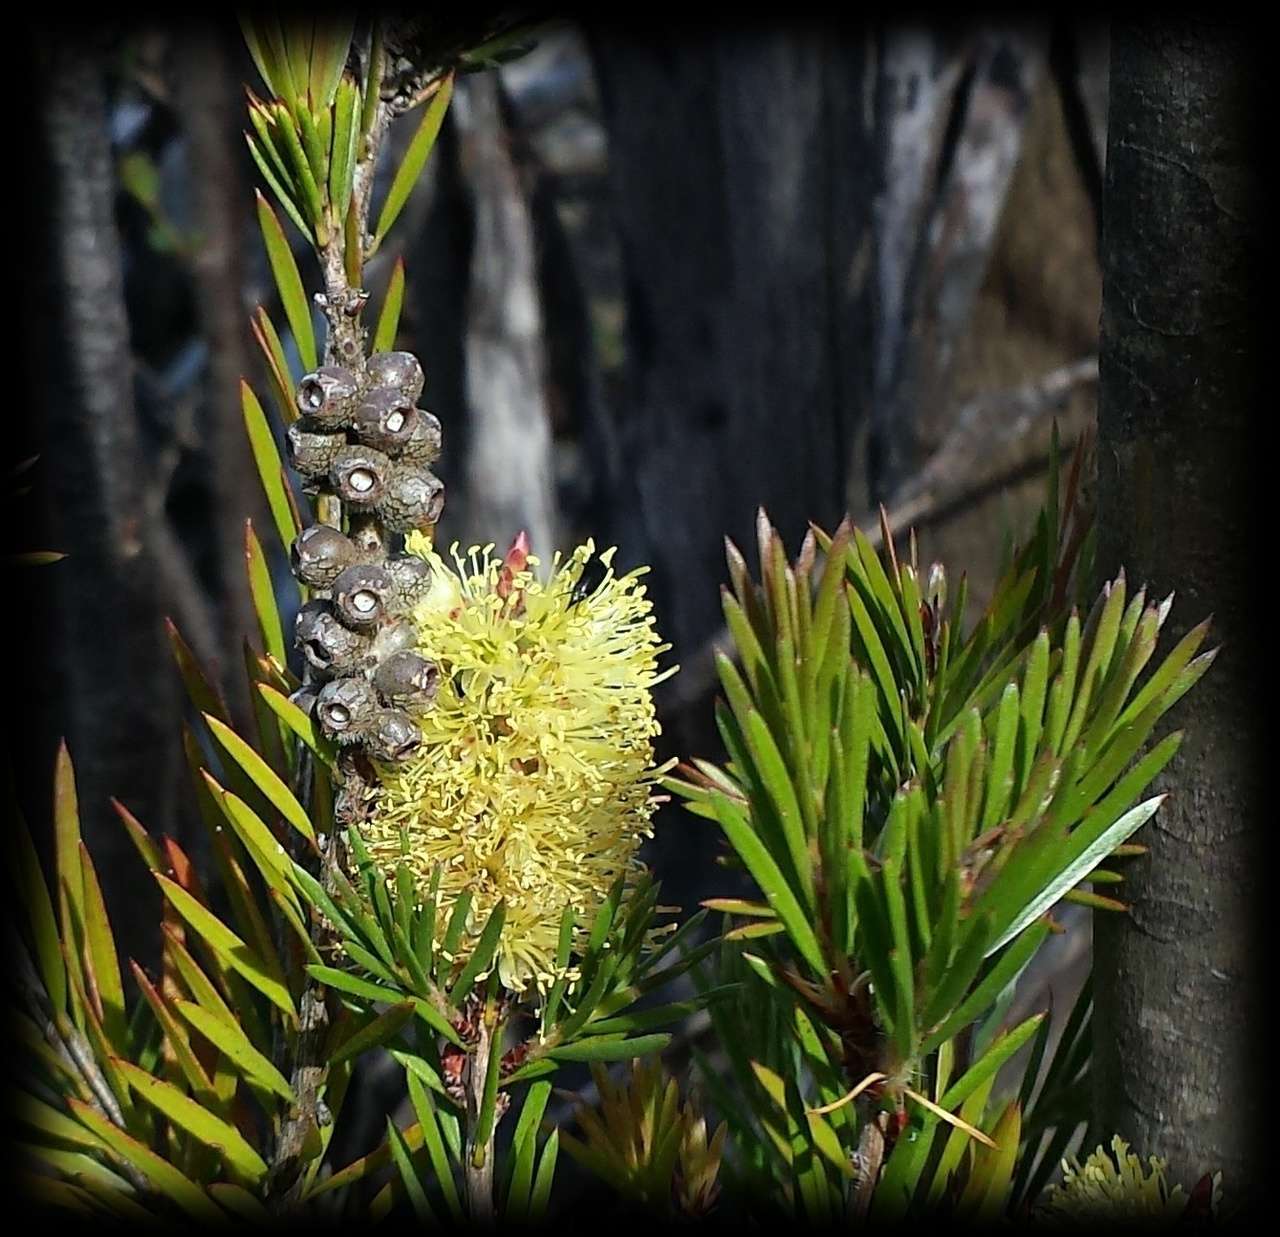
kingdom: Plantae
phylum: Tracheophyta
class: Magnoliopsida
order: Myrtales
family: Myrtaceae
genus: Callistemon
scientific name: Callistemon pityoides
